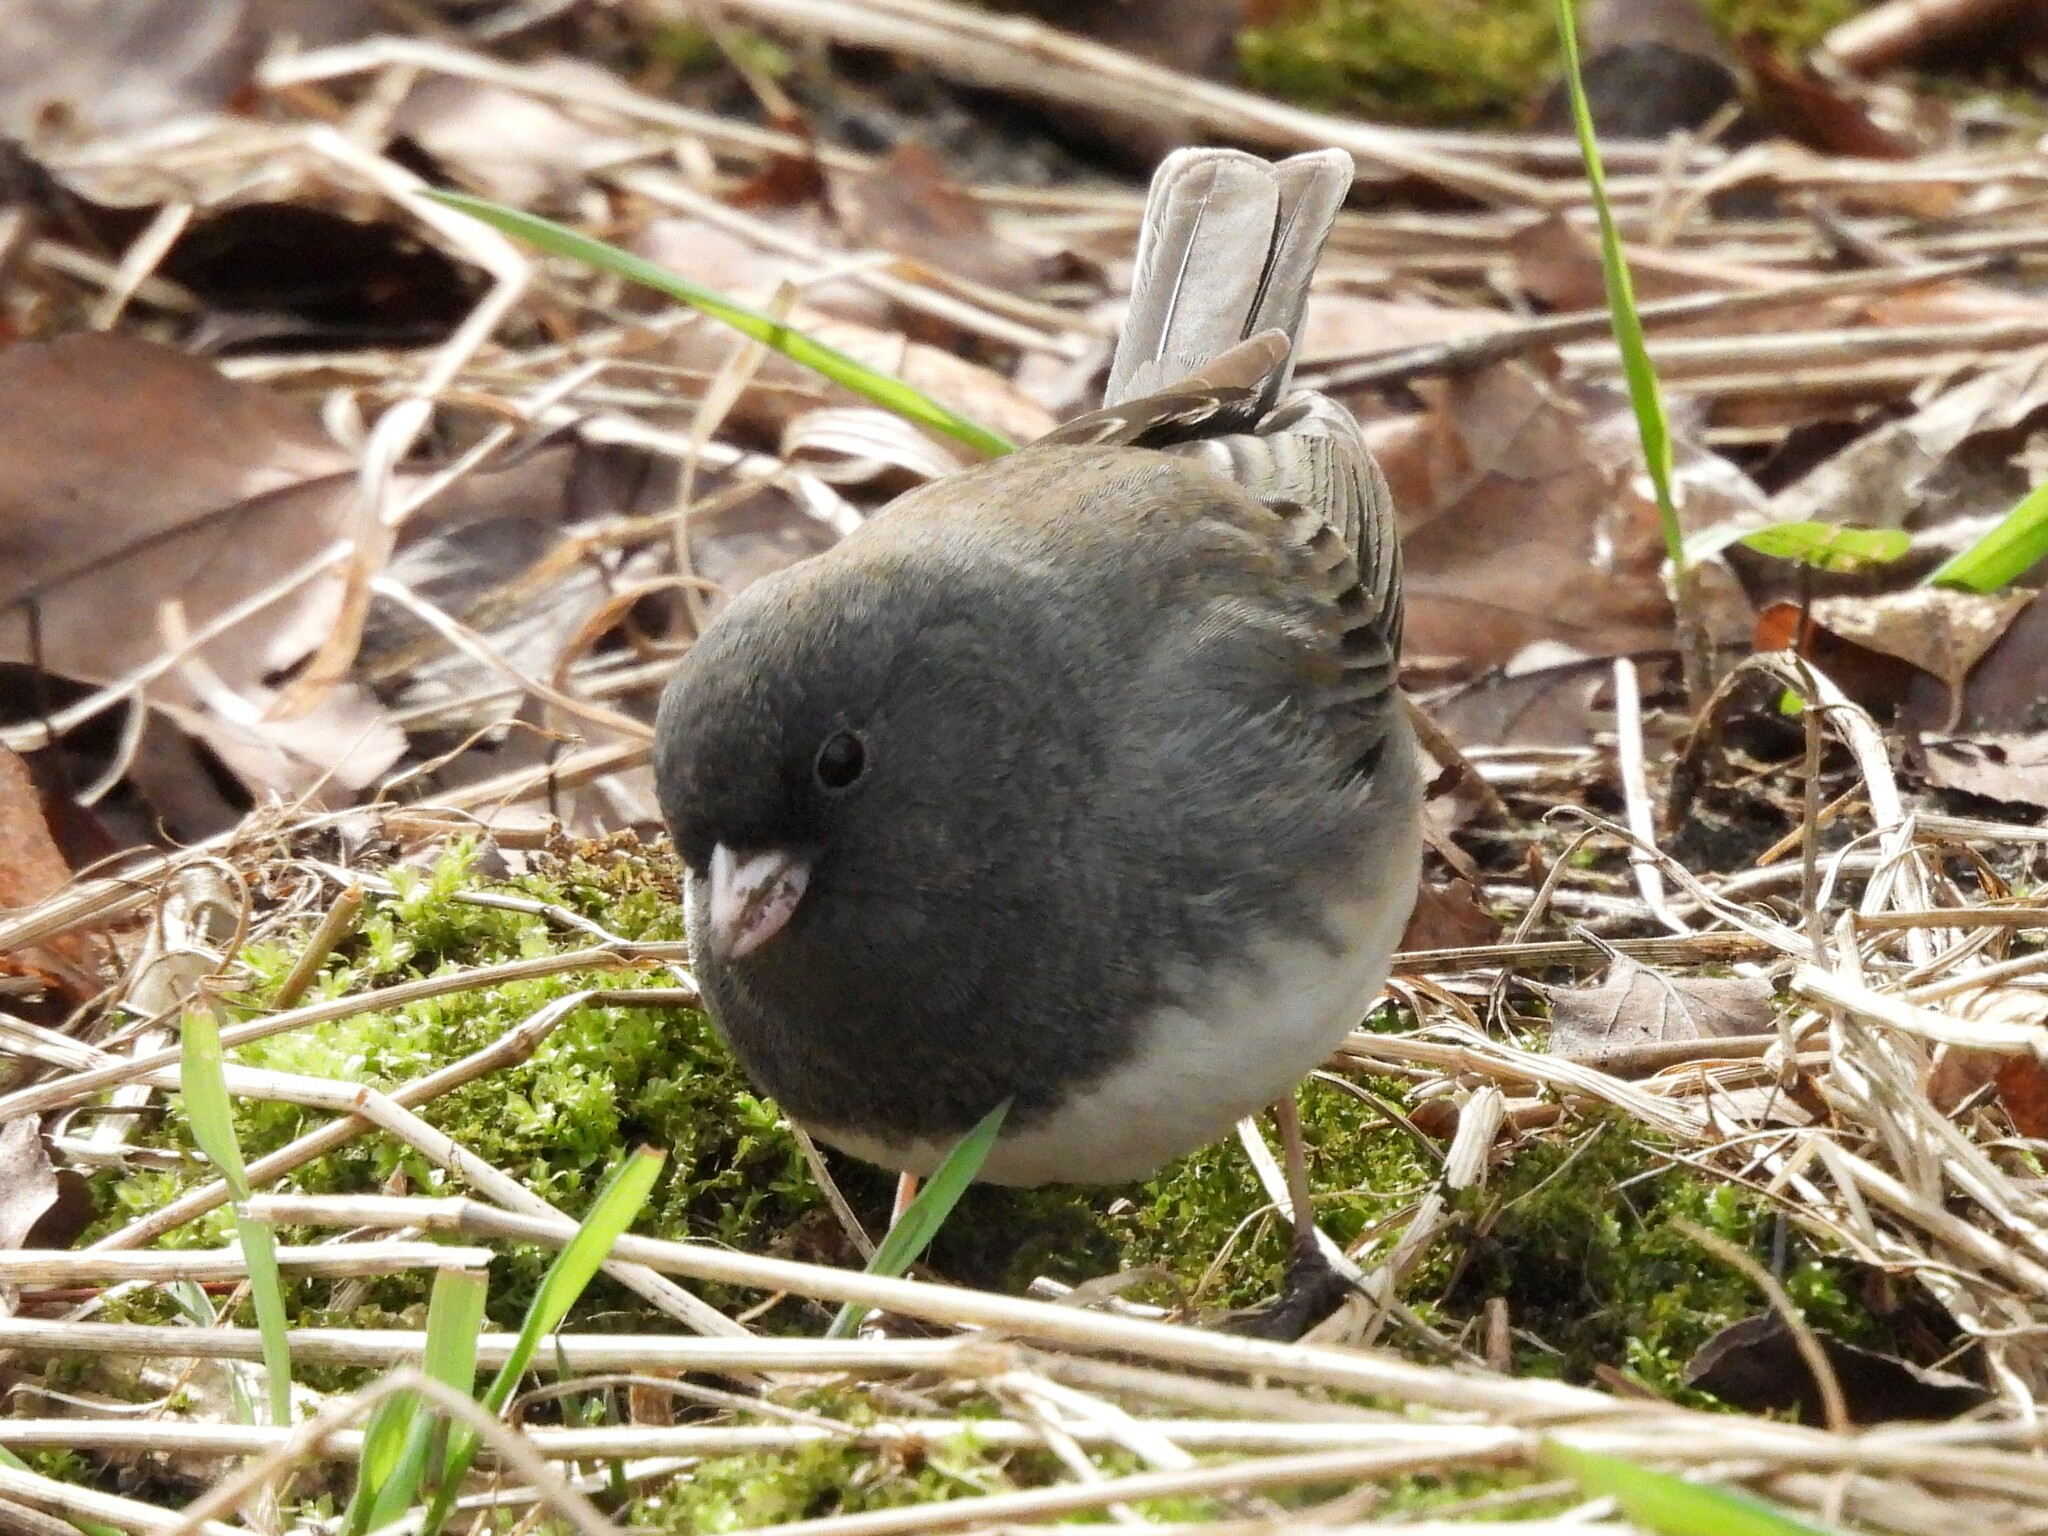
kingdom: Animalia
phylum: Chordata
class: Aves
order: Passeriformes
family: Passerellidae
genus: Junco
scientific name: Junco hyemalis
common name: Dark-eyed junco
